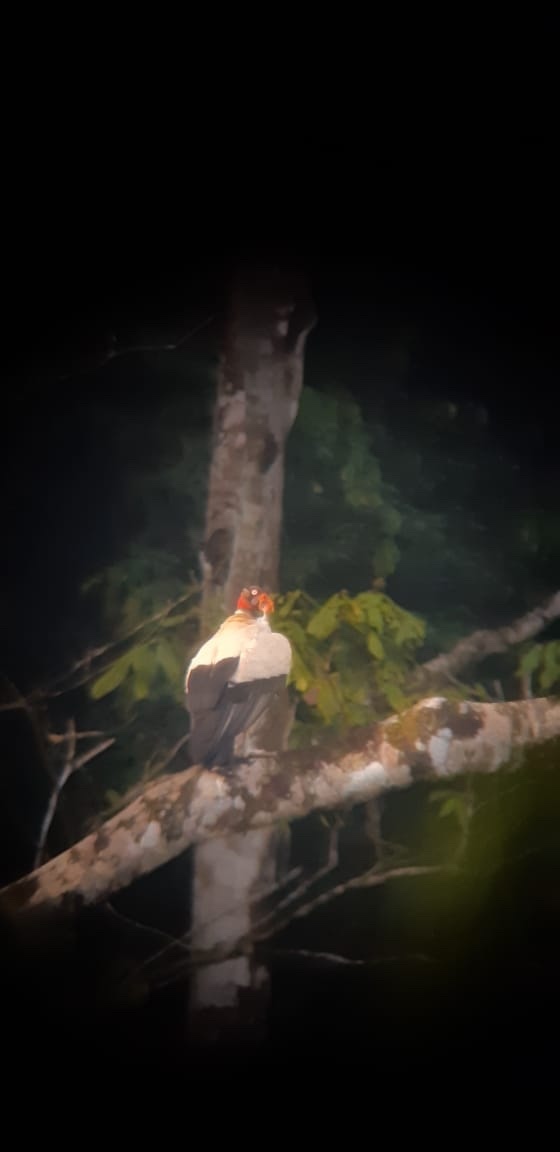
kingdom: Animalia
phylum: Chordata
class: Aves
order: Accipitriformes
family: Cathartidae
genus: Sarcoramphus
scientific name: Sarcoramphus papa
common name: King vulture
